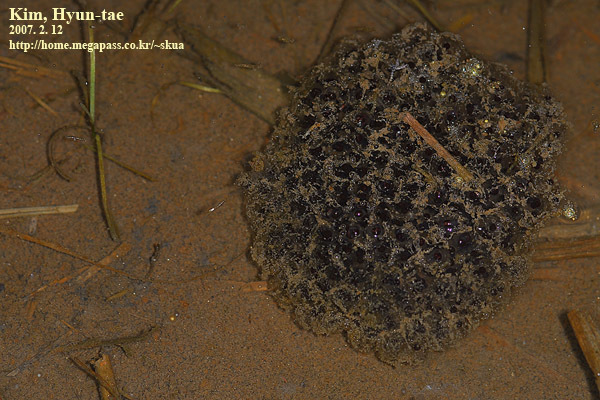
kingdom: Animalia
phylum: Chordata
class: Amphibia
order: Anura
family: Ranidae
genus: Rana
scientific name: Rana coreana
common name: Korean brown frog
